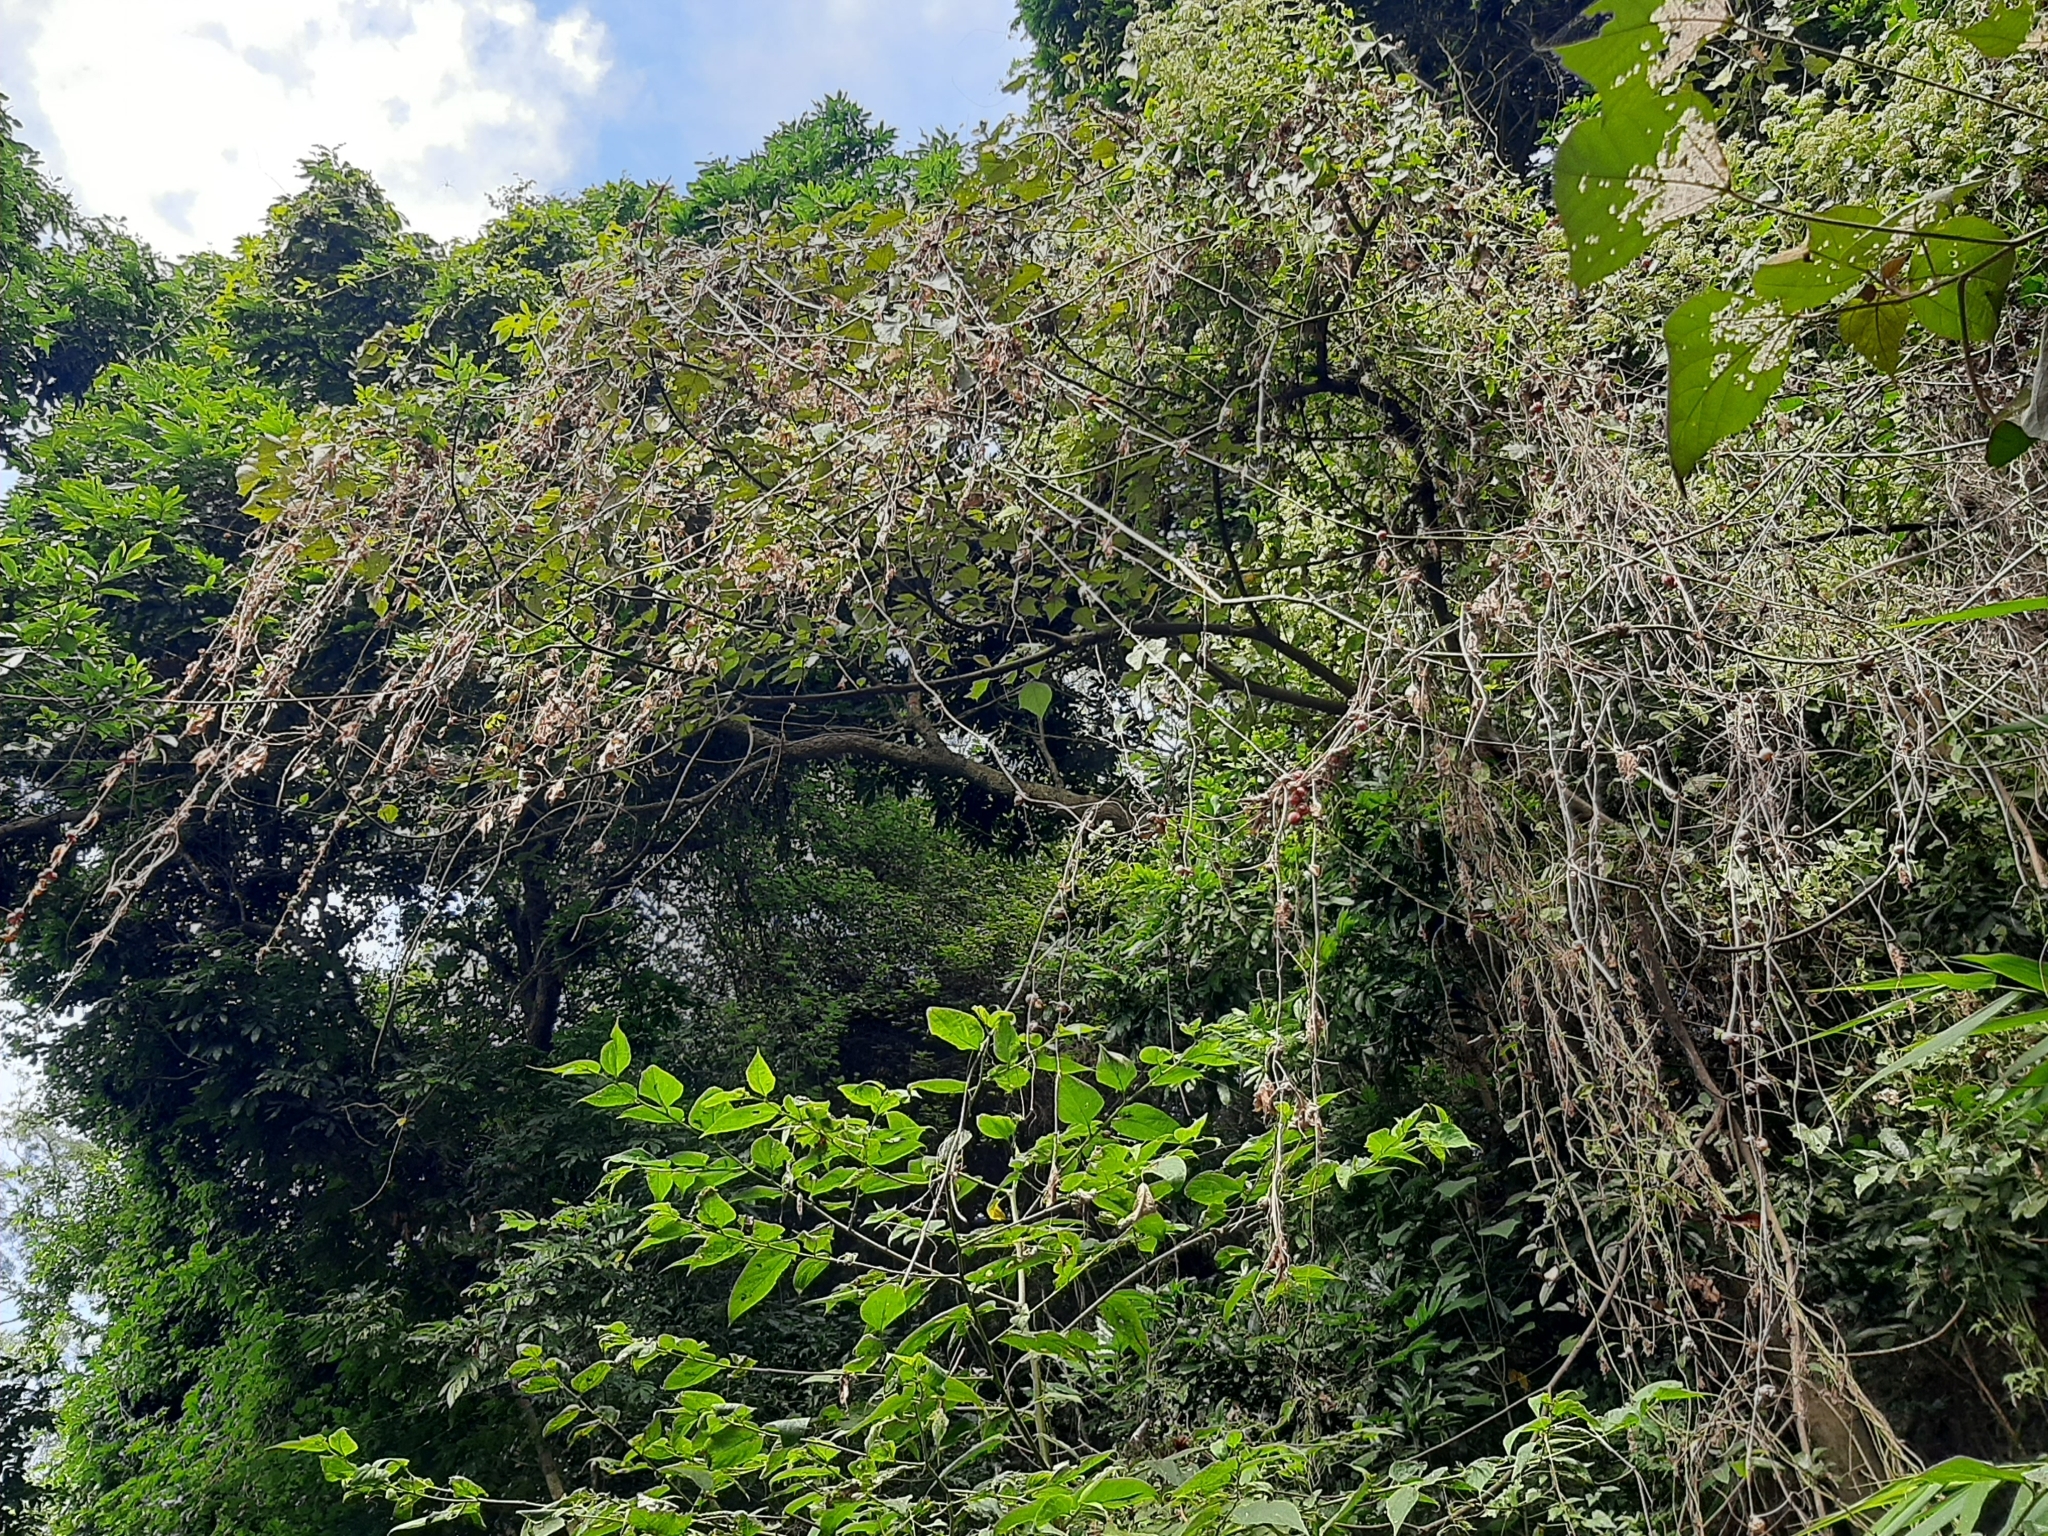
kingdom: Plantae
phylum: Tracheophyta
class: Magnoliopsida
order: Cucurbitales
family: Cucurbitaceae
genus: Diplocyclos
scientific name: Diplocyclos palmatus
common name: Striped-cucumber
